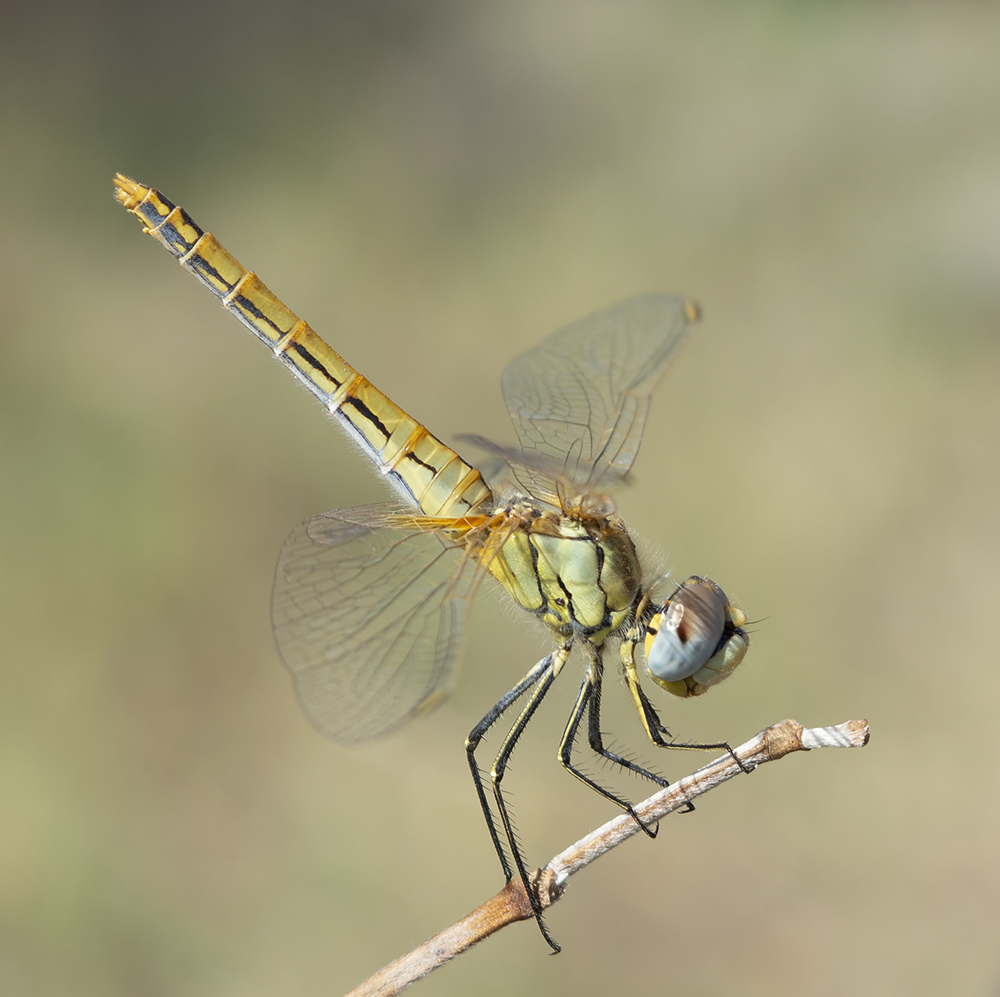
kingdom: Animalia
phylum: Arthropoda
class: Insecta
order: Odonata
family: Libellulidae
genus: Sympetrum
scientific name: Sympetrum fonscolombii
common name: Red-veined darter
